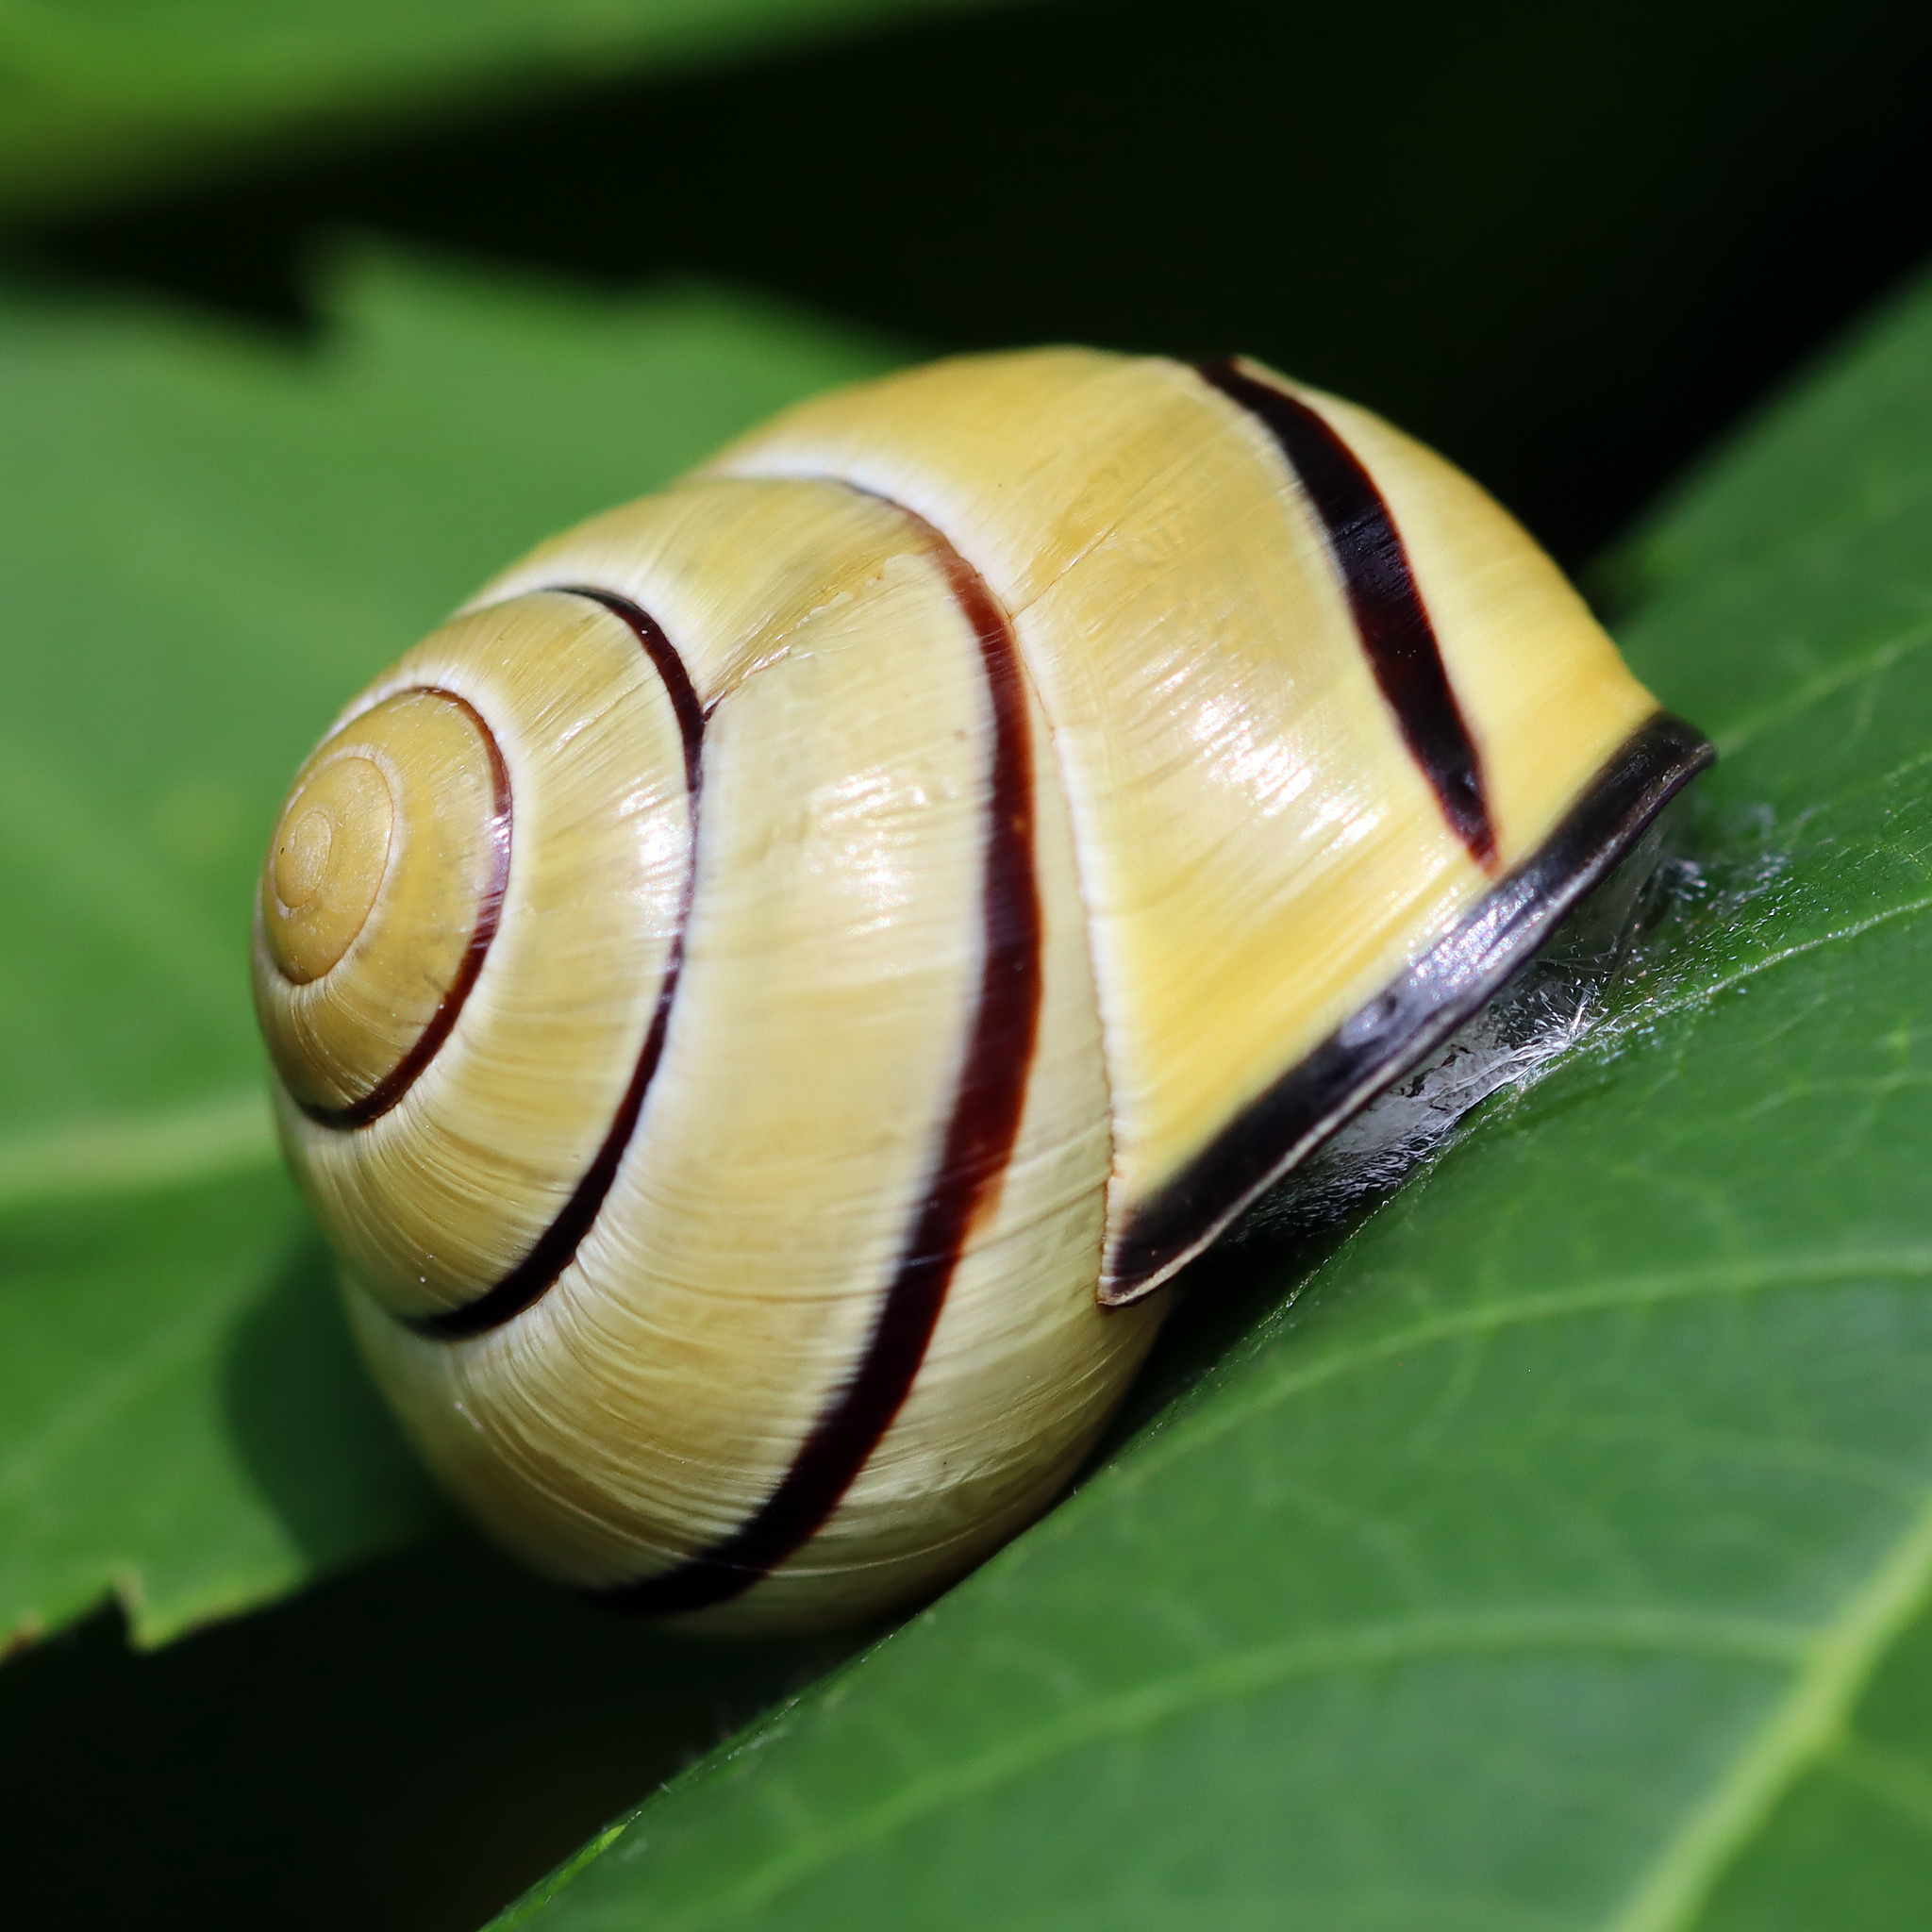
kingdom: Animalia
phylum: Mollusca
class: Gastropoda
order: Stylommatophora
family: Helicidae
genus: Cepaea
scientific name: Cepaea nemoralis
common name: Grovesnail
